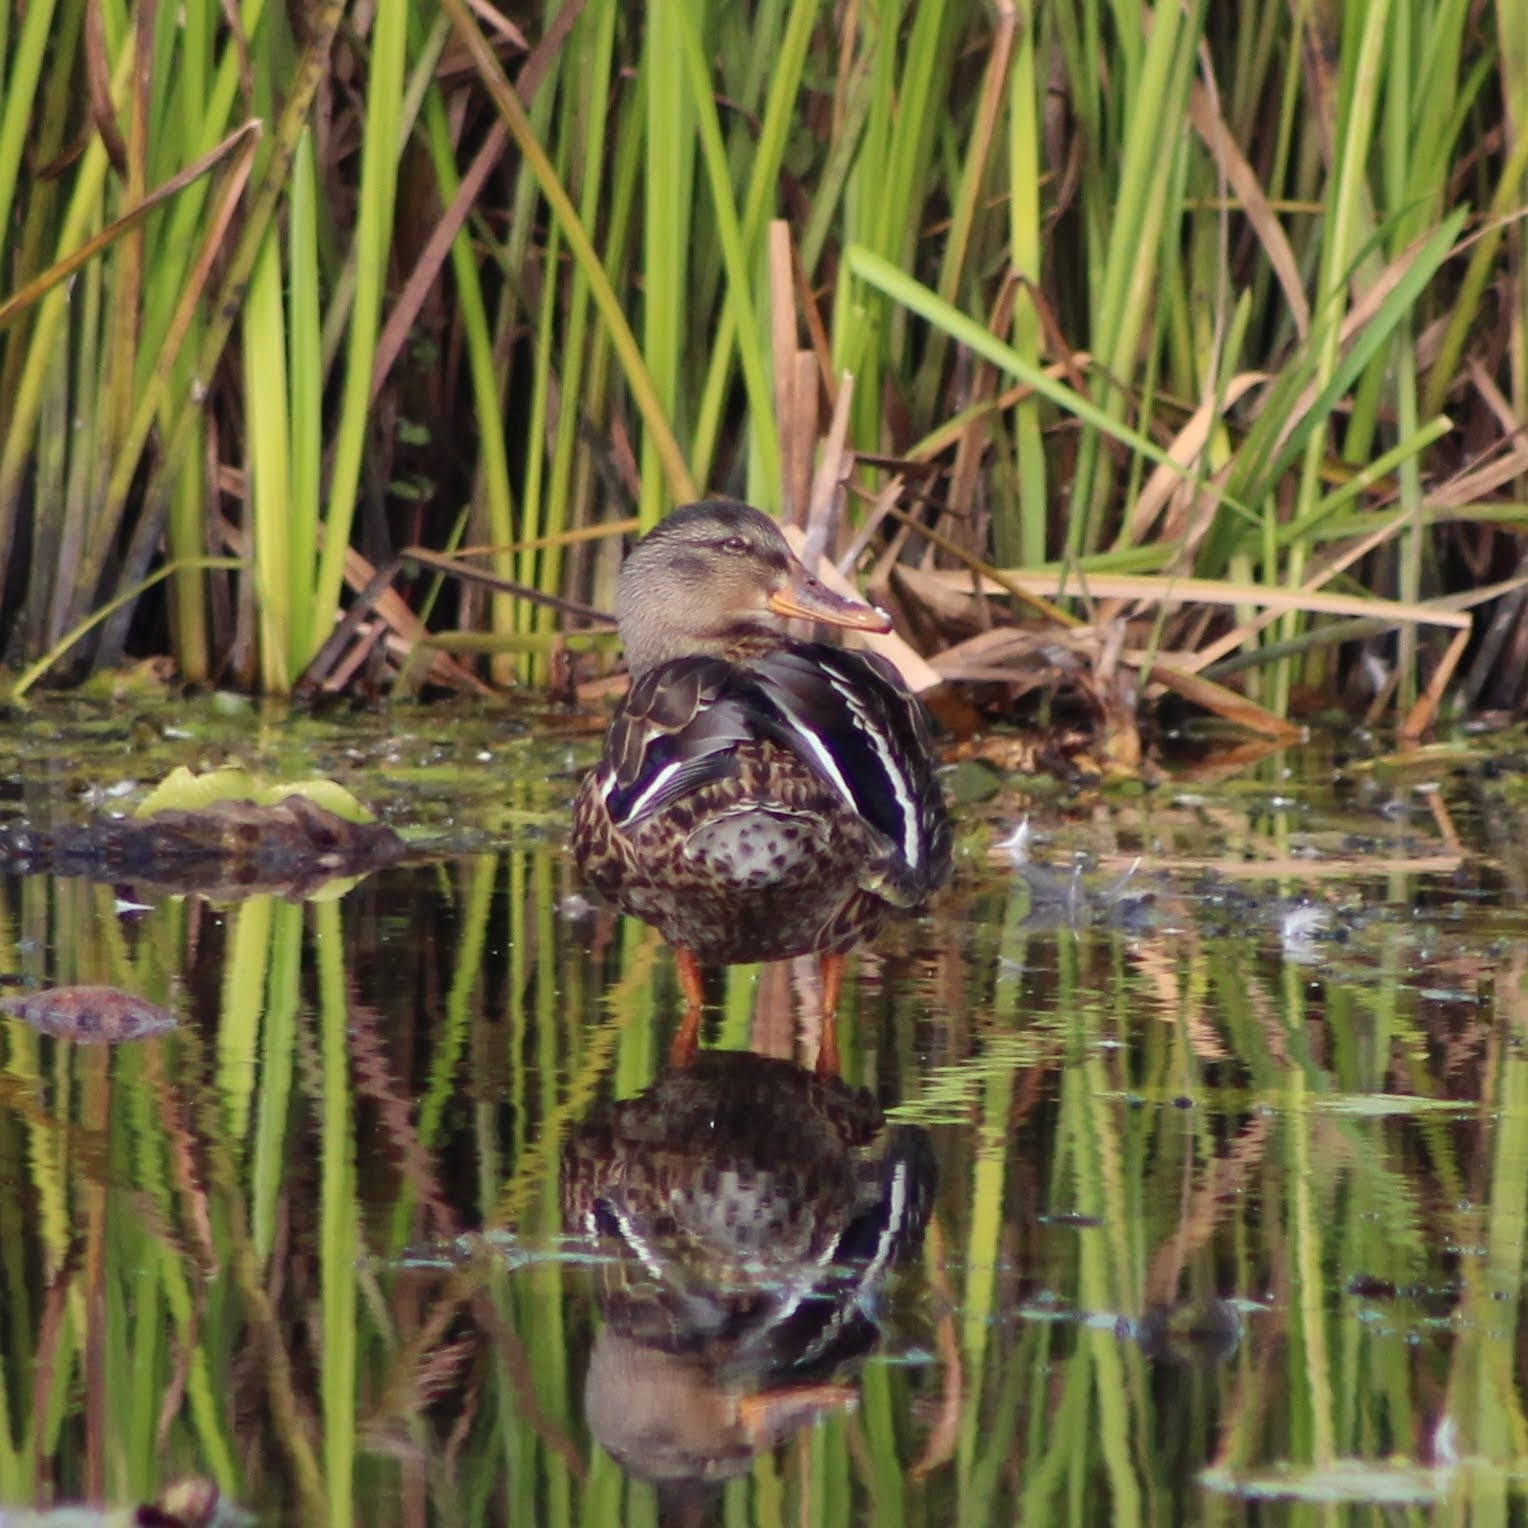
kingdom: Animalia
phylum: Chordata
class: Aves
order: Anseriformes
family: Anatidae
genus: Anas
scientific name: Anas platyrhynchos
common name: Mallard
